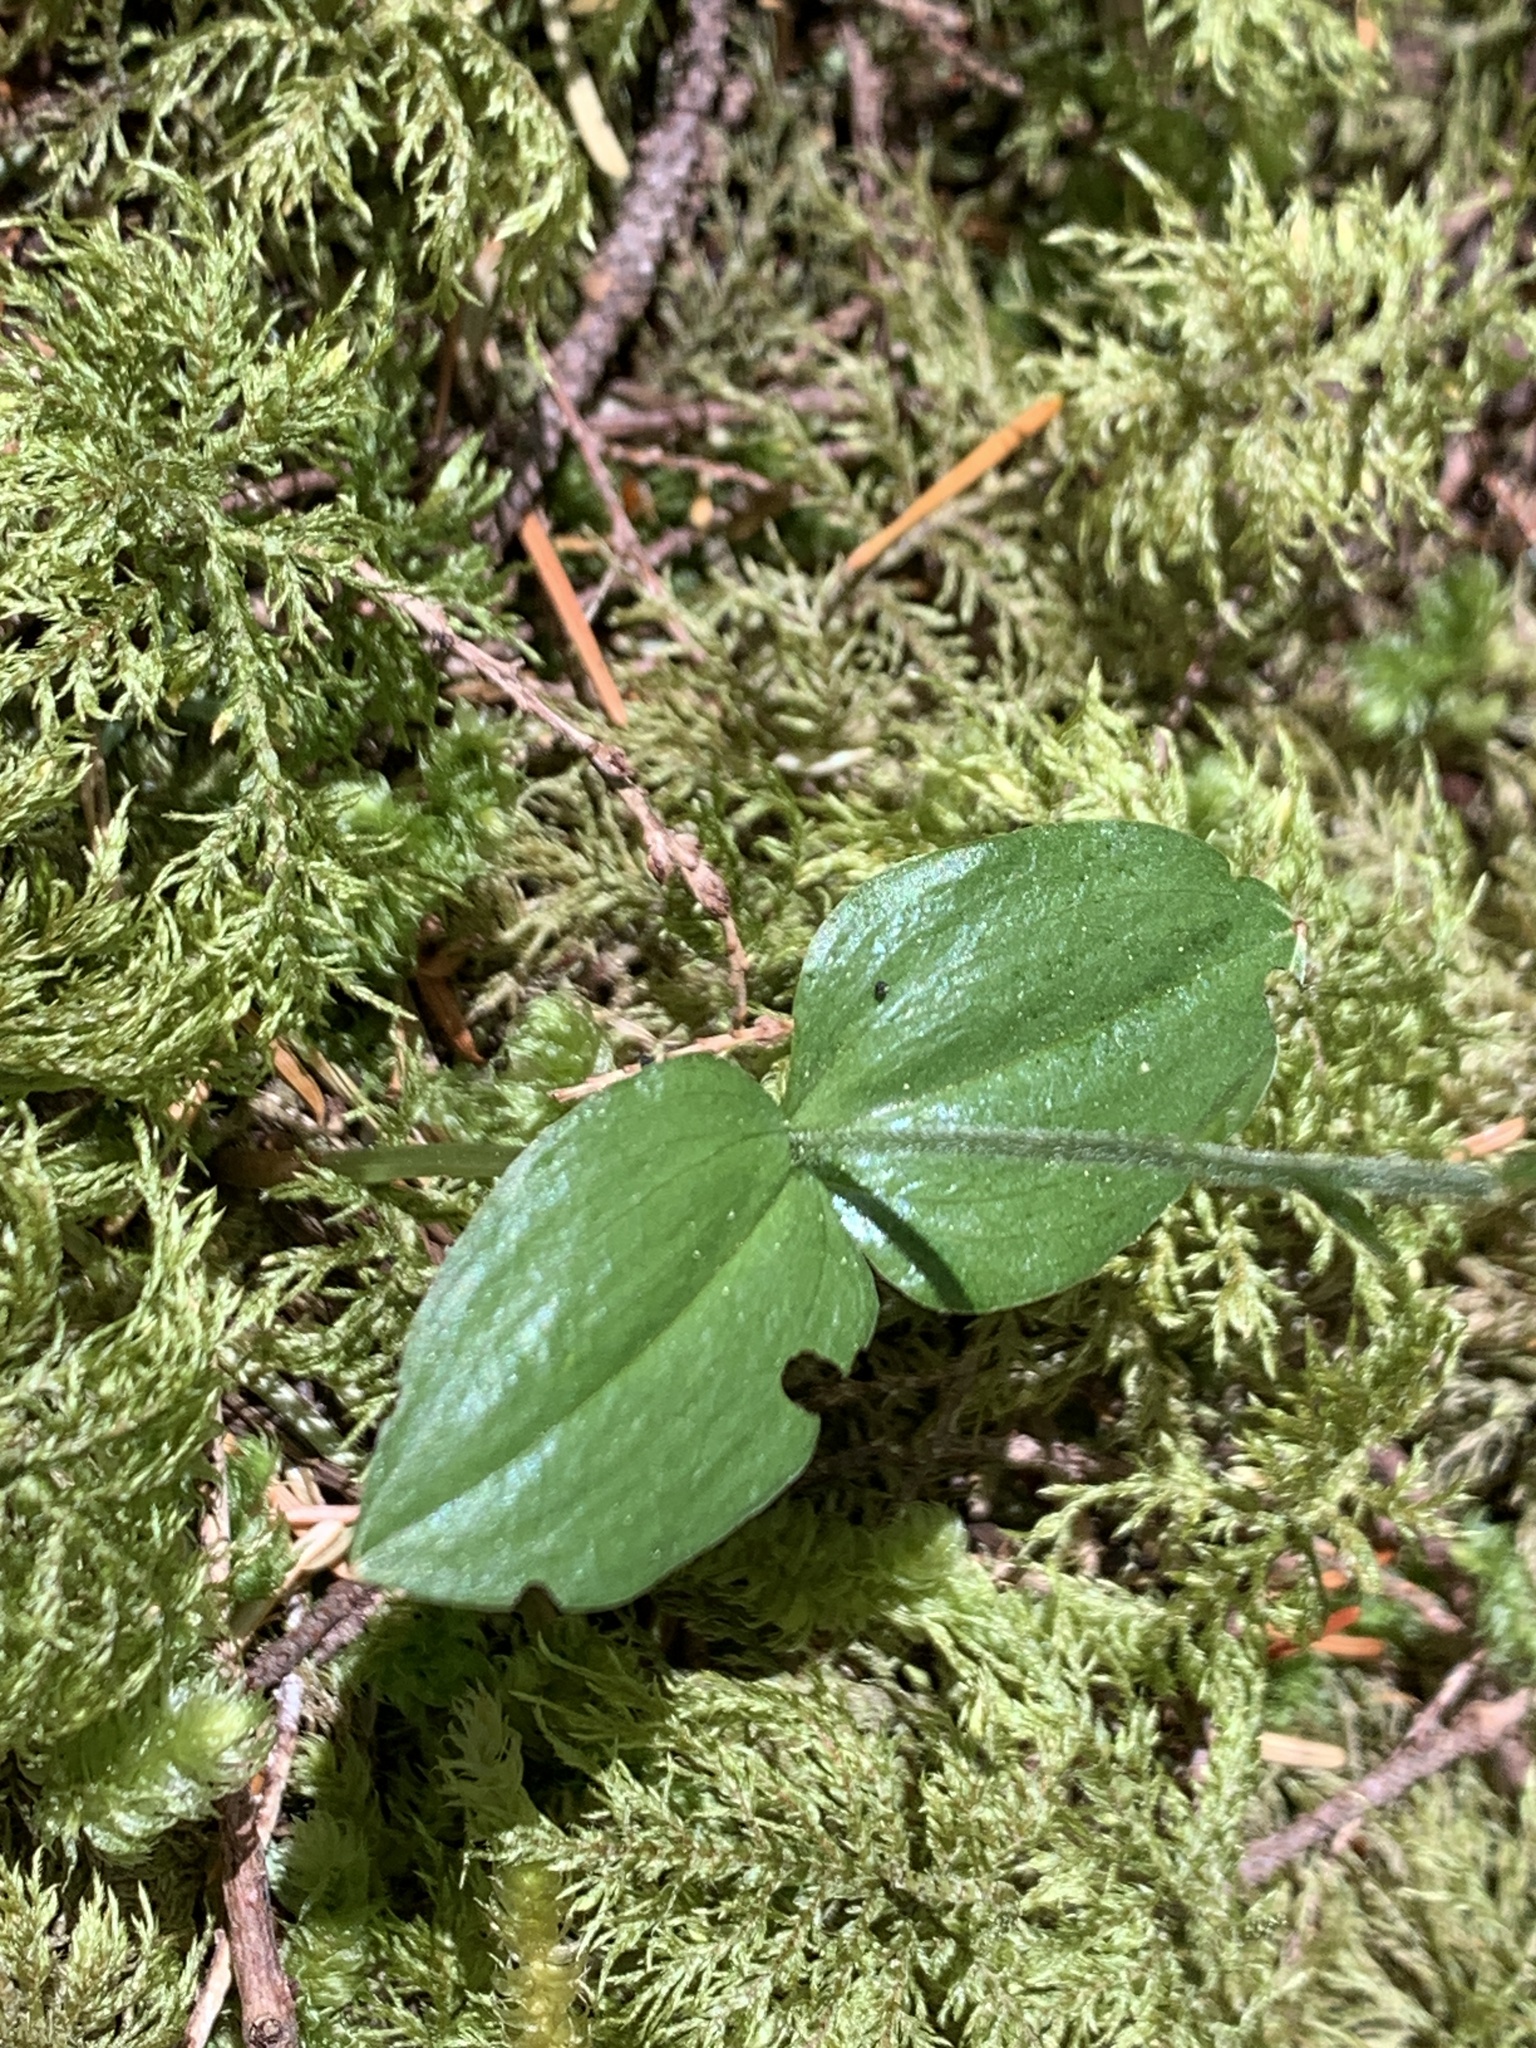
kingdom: Plantae
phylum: Tracheophyta
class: Liliopsida
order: Asparagales
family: Orchidaceae
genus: Neottia
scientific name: Neottia cordata
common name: Lesser twayblade
